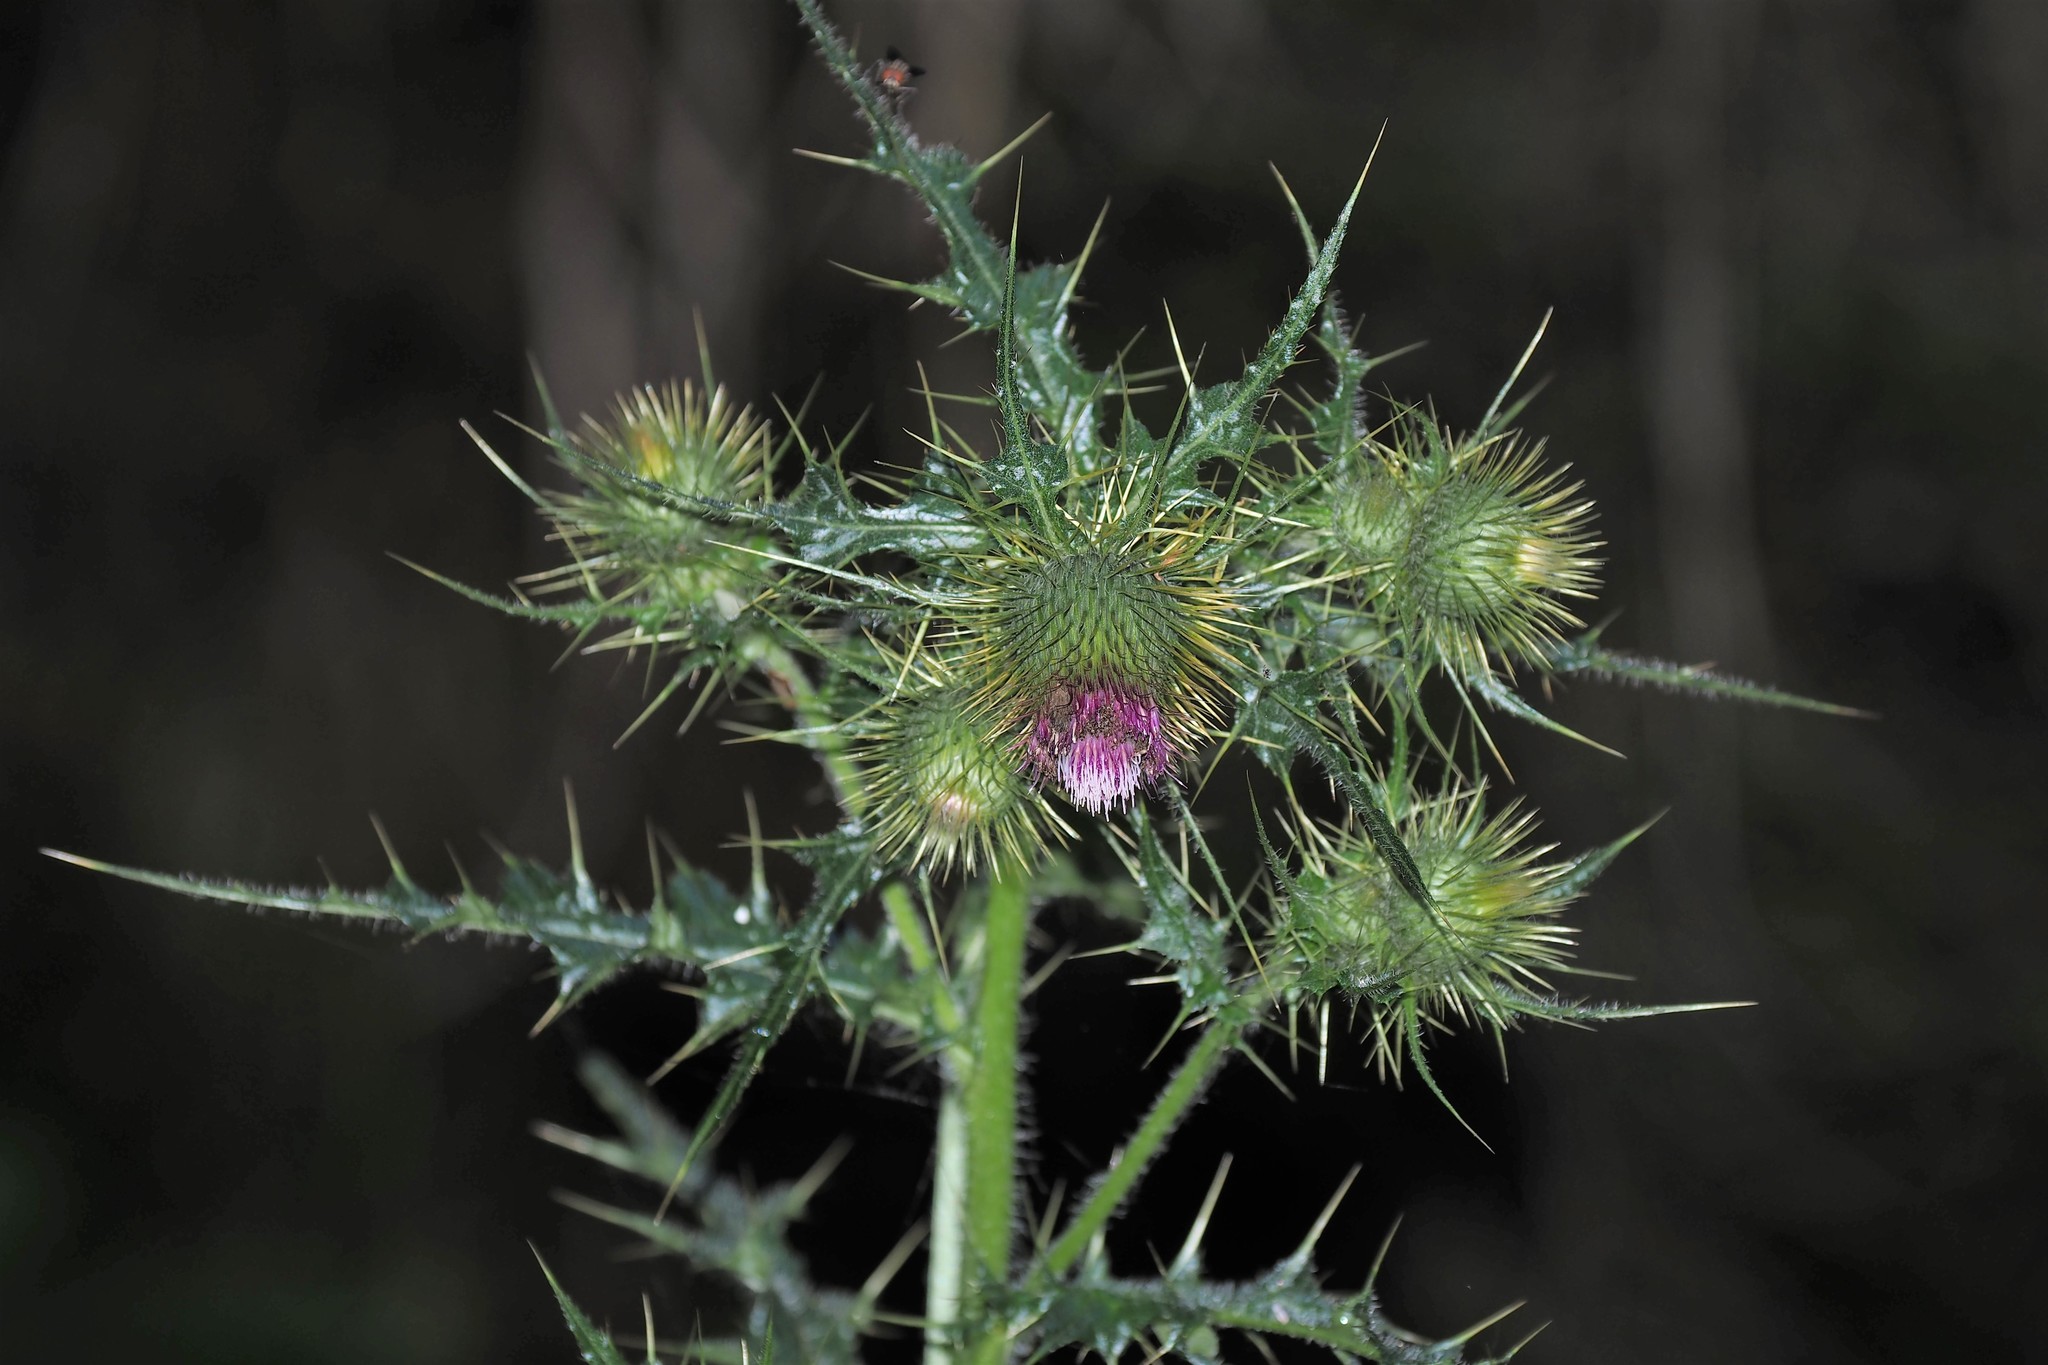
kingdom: Plantae
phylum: Tracheophyta
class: Magnoliopsida
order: Asterales
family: Asteraceae
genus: Cirsium
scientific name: Cirsium ferum
